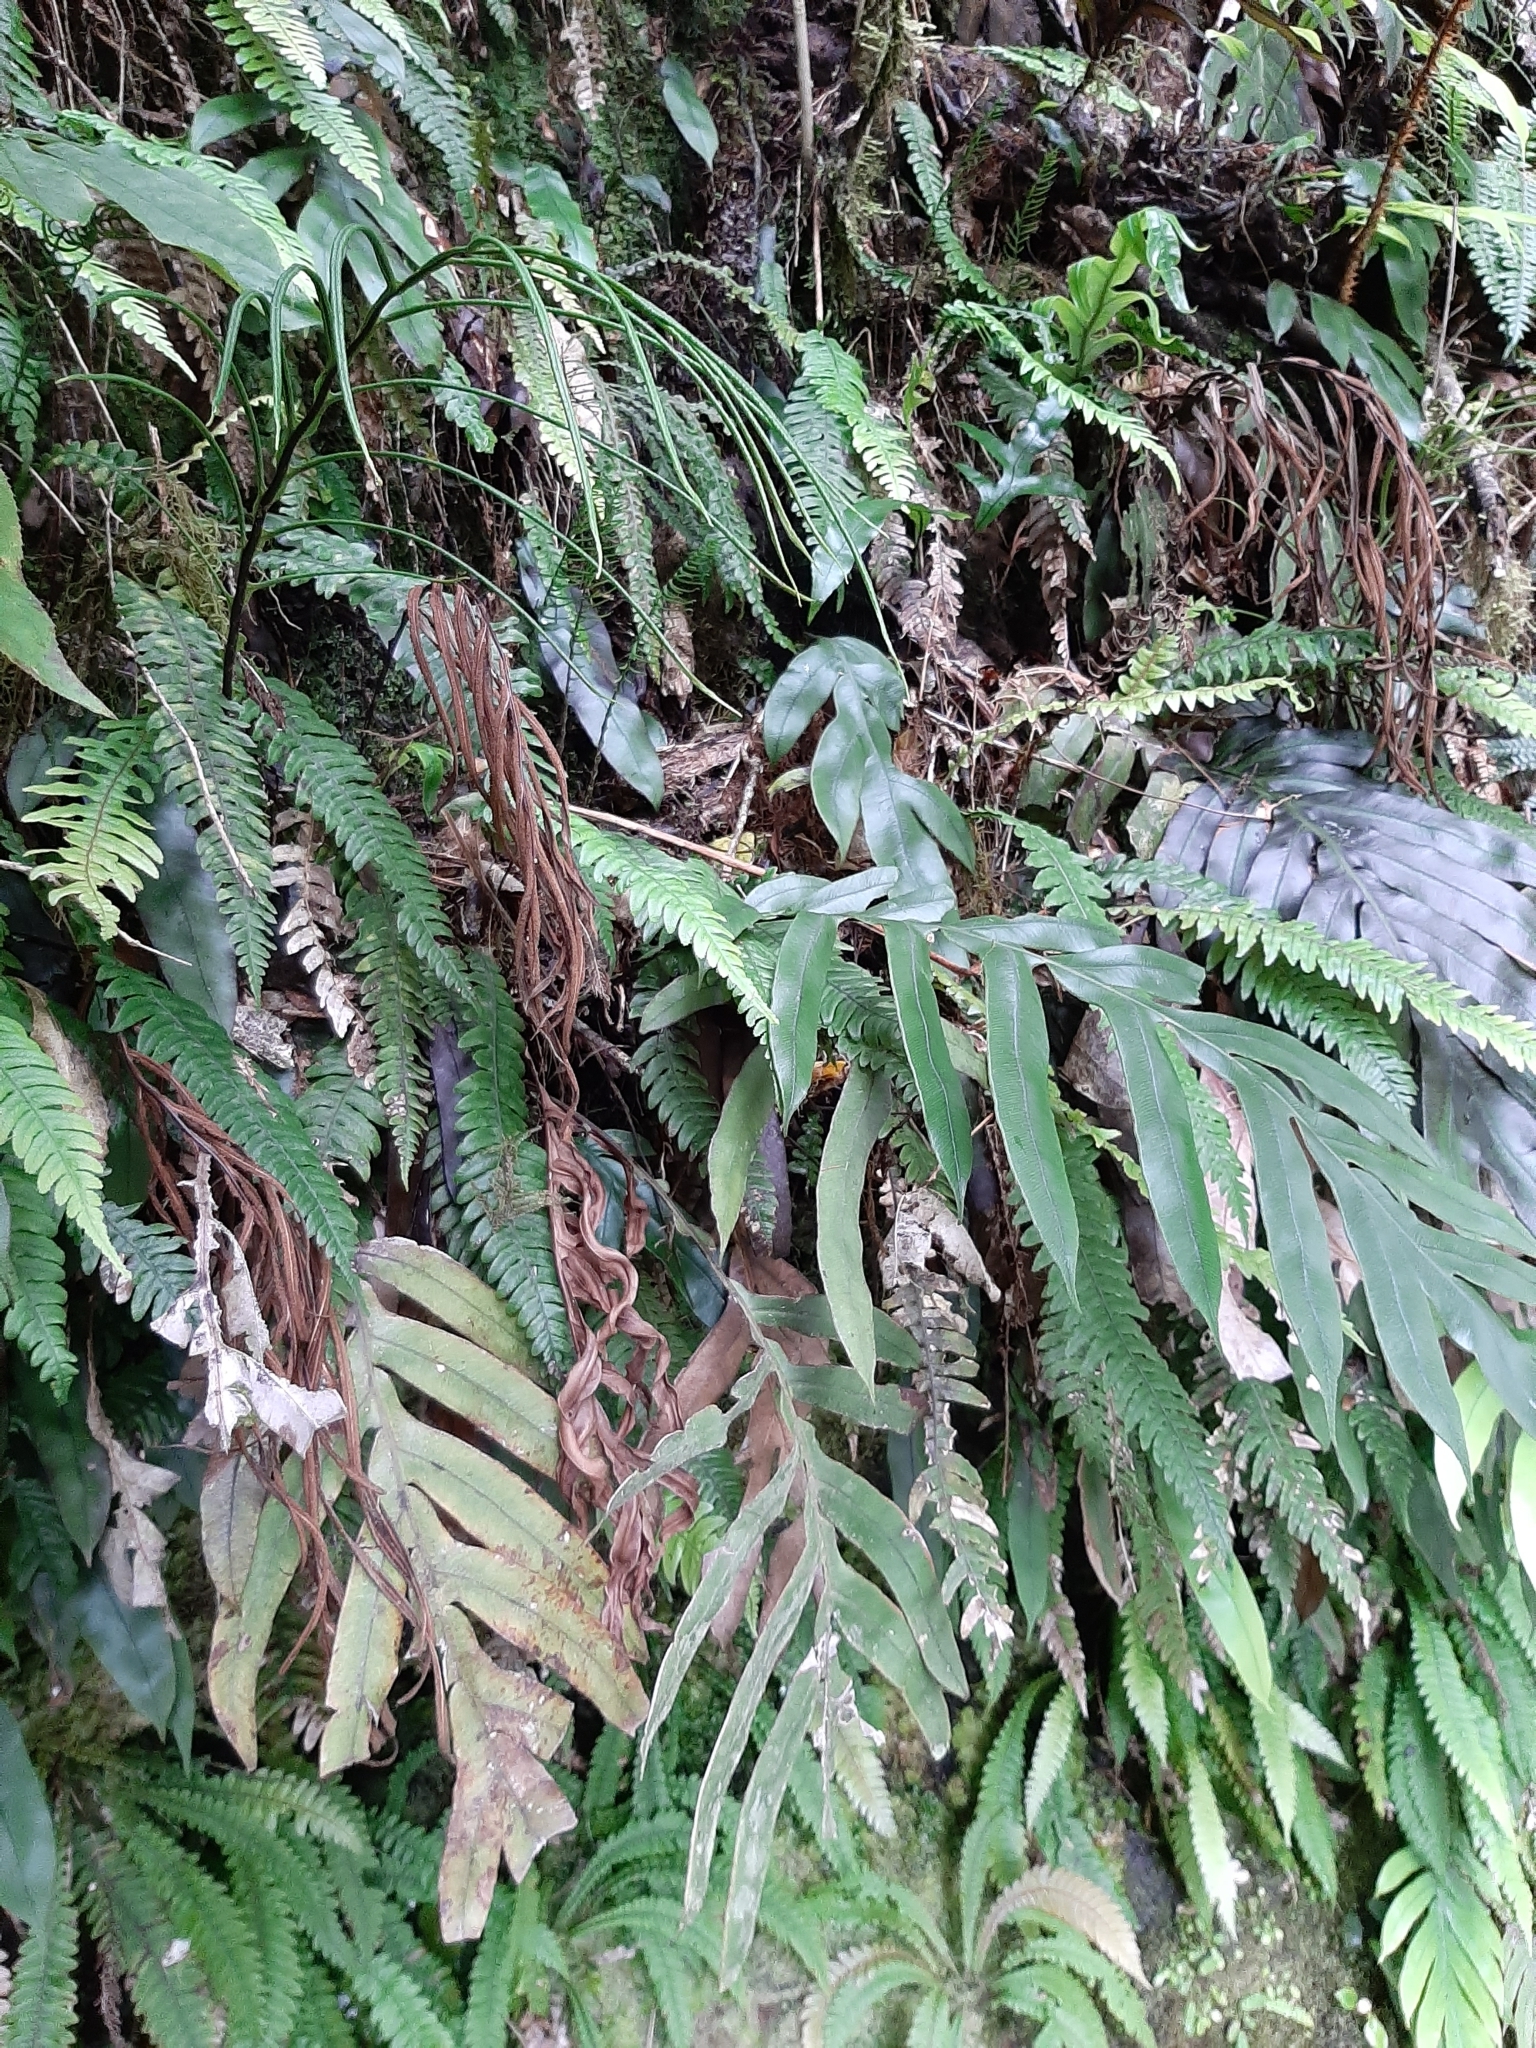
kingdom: Plantae
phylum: Tracheophyta
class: Polypodiopsida
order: Polypodiales
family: Blechnaceae
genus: Austroblechnum
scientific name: Austroblechnum colensoi
